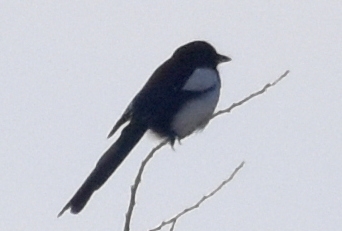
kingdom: Animalia
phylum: Chordata
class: Aves
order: Passeriformes
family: Corvidae
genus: Pica
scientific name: Pica serica
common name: Oriental magpie
